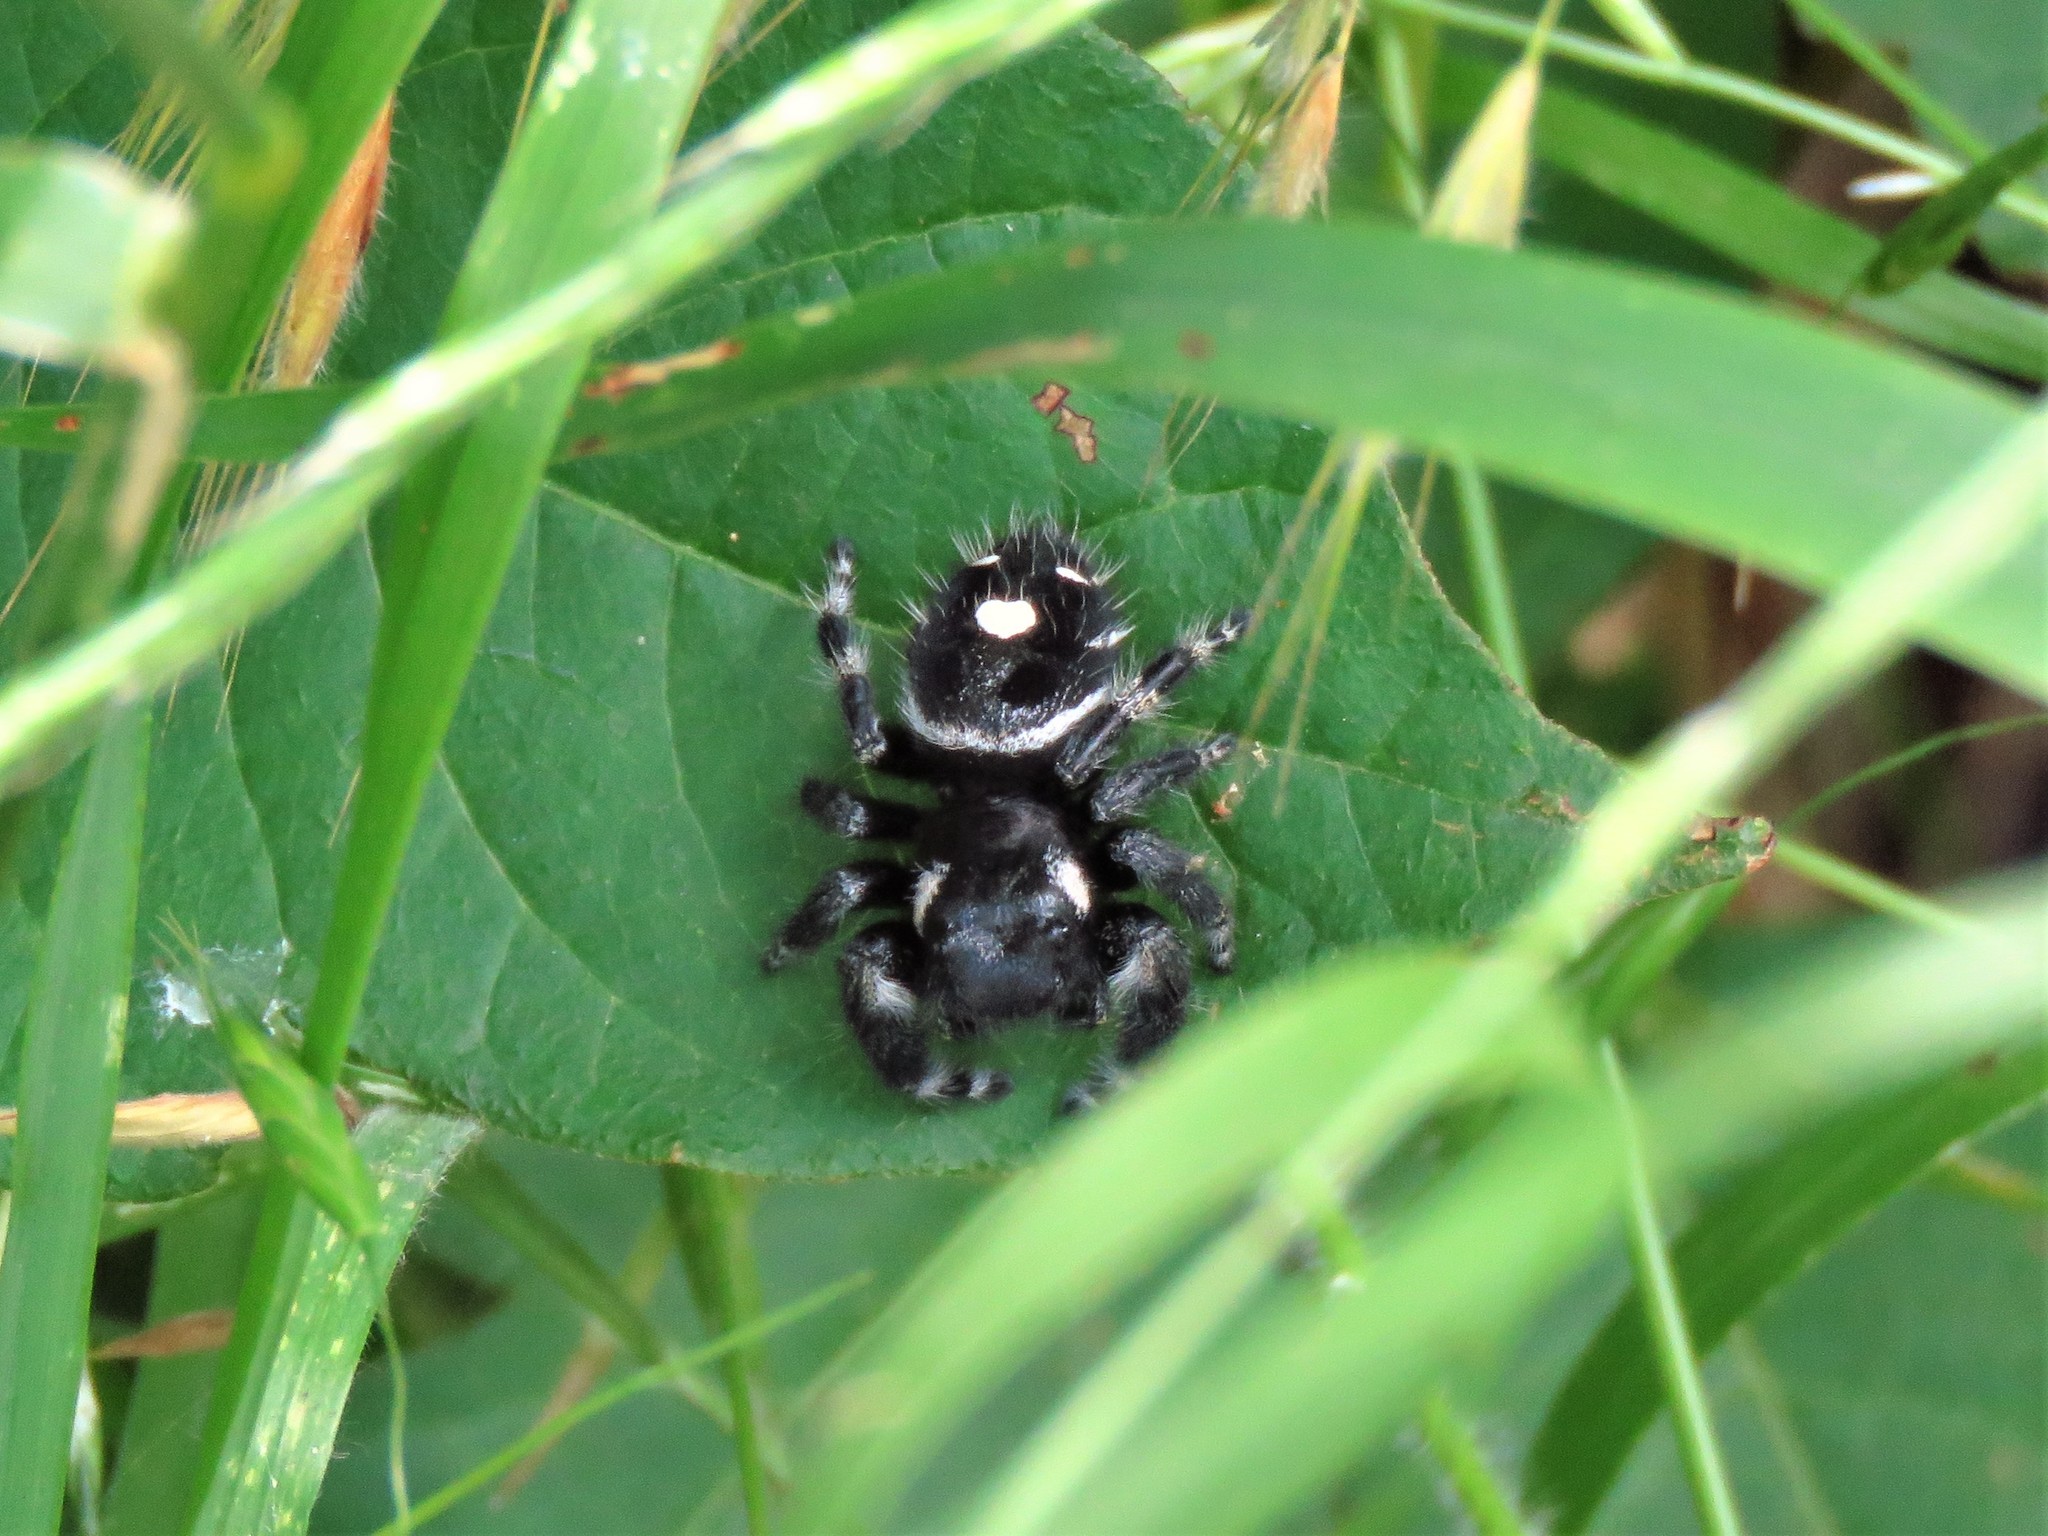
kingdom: Animalia
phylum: Arthropoda
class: Arachnida
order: Araneae
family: Salticidae
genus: Phidippus
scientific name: Phidippus audax
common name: Bold jumper
